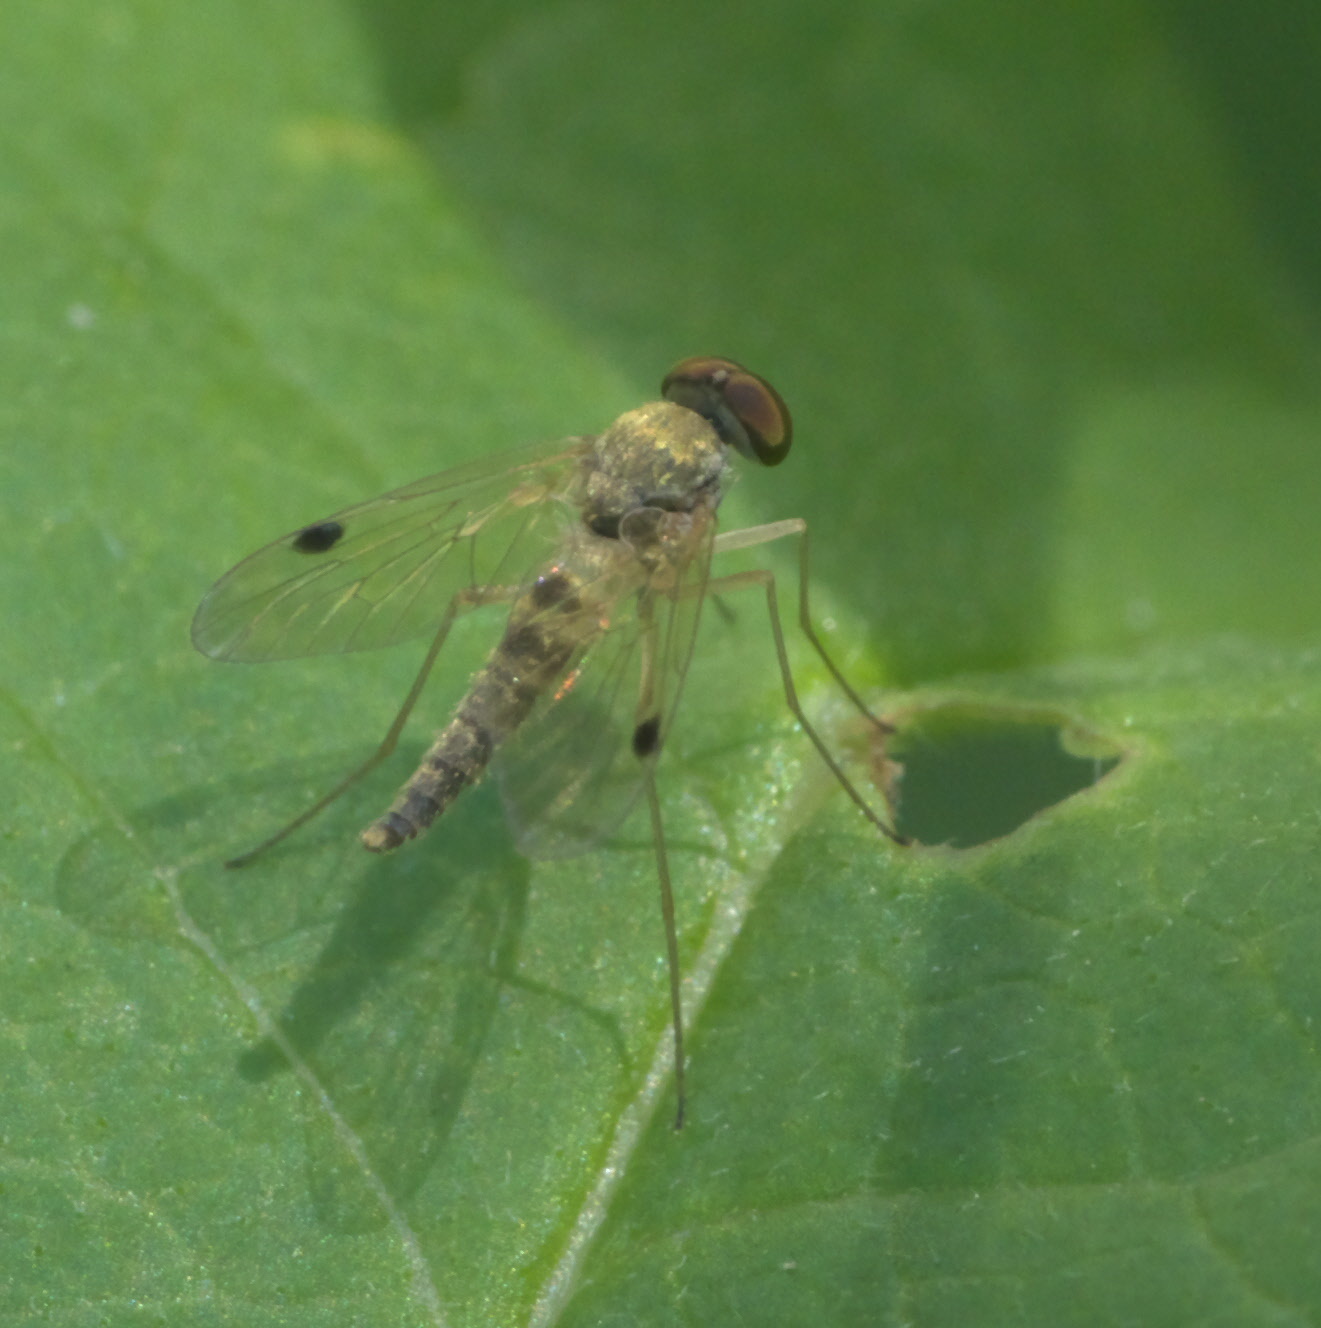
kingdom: Animalia
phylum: Arthropoda
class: Insecta
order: Diptera
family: Rhagionidae
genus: Chrysopilus
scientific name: Chrysopilus modestus
